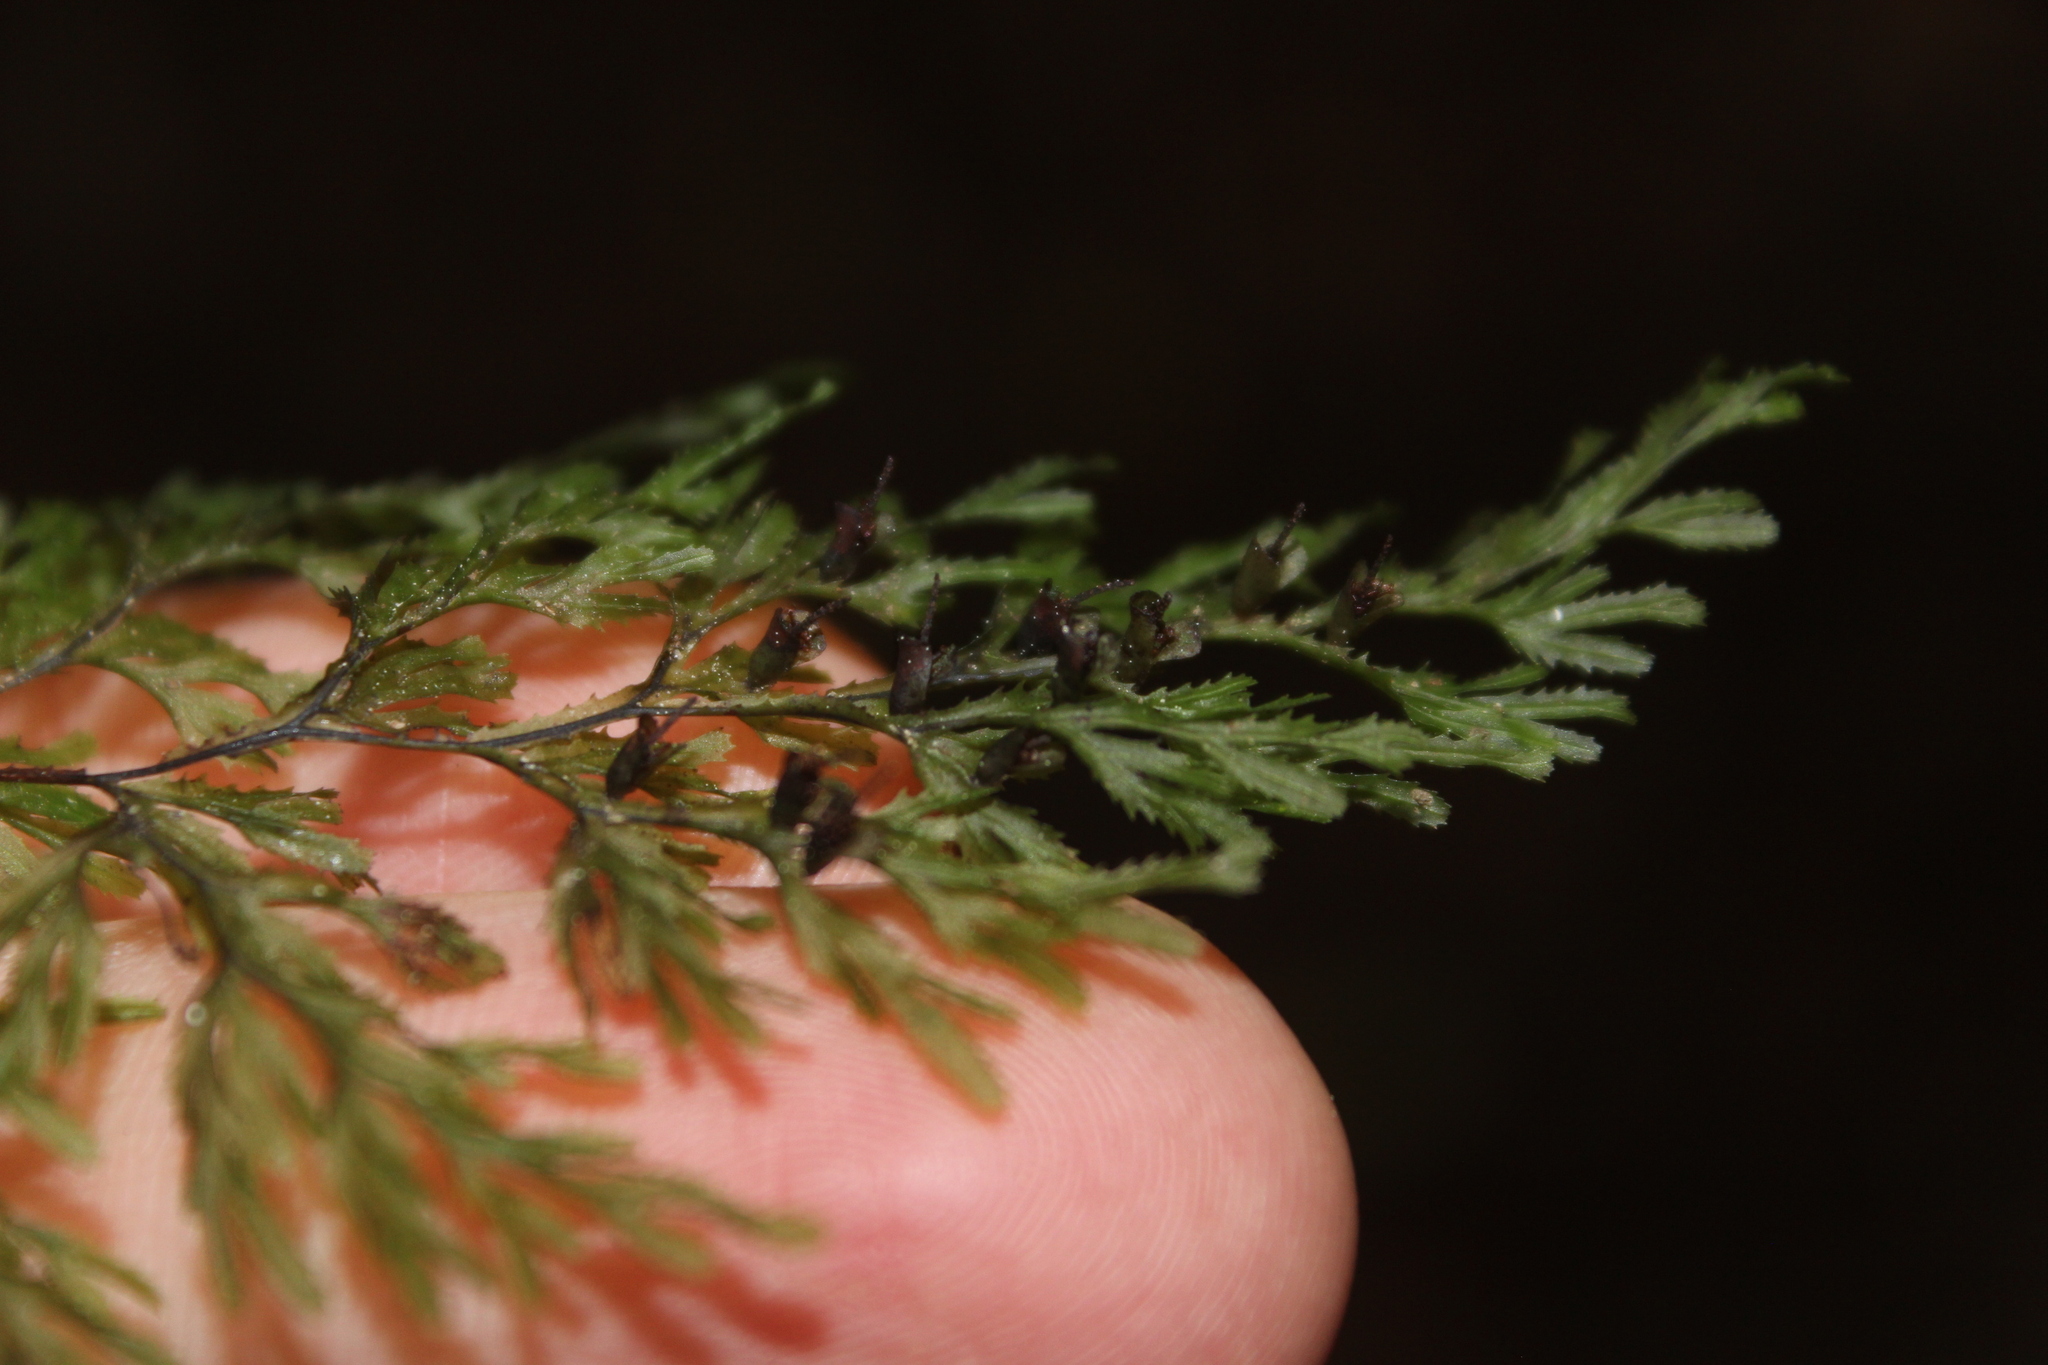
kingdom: Plantae
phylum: Tracheophyta
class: Polypodiopsida
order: Hymenophyllales
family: Hymenophyllaceae
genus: Hymenophyllum
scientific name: Hymenophyllum multifidum
